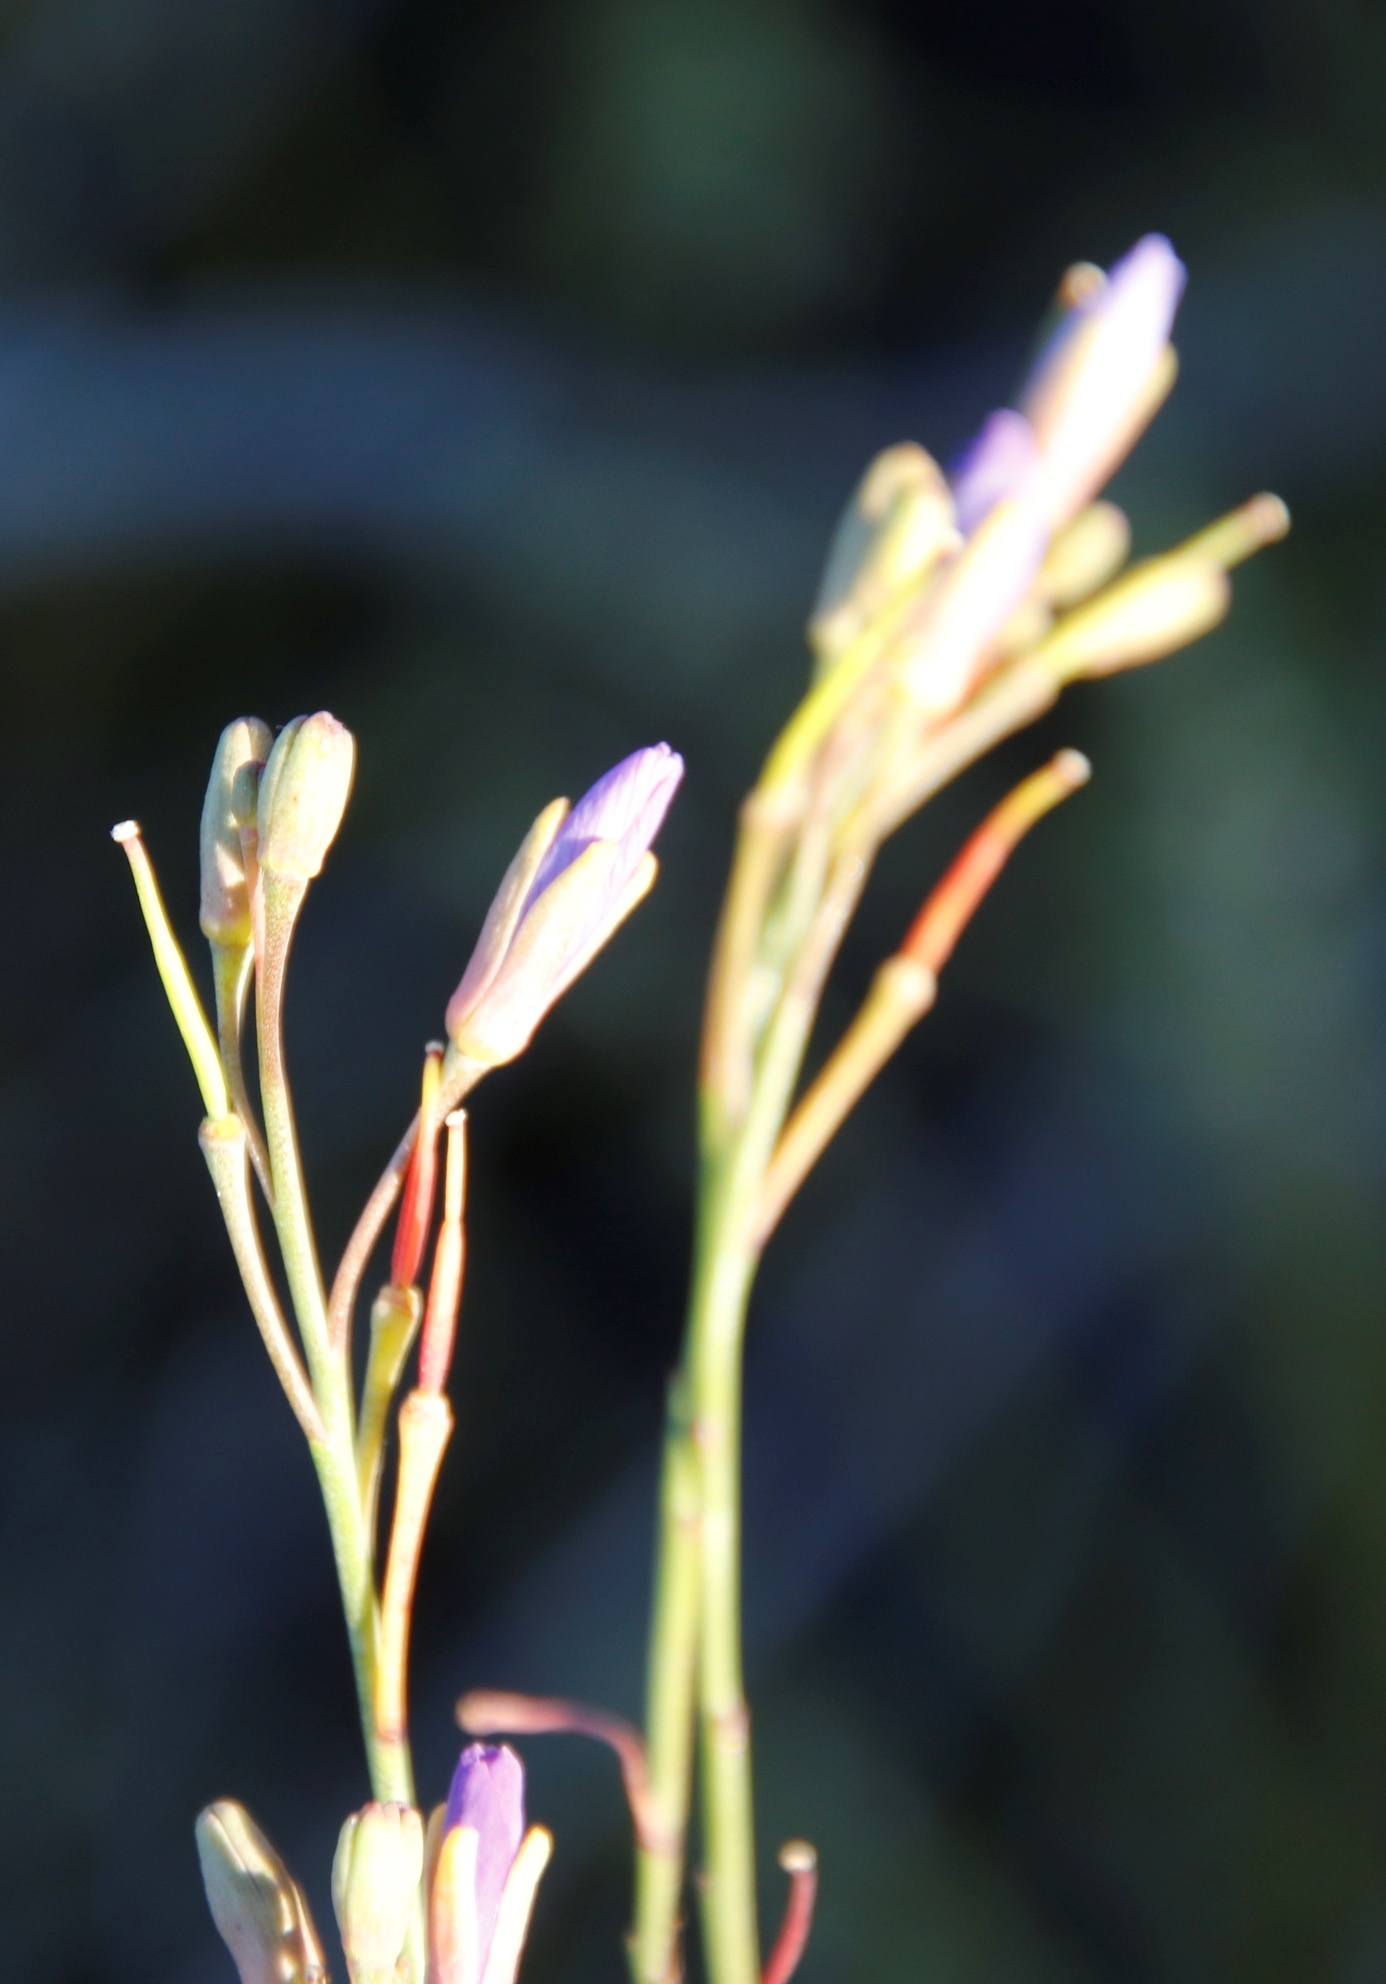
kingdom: Plantae
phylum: Tracheophyta
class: Magnoliopsida
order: Brassicales
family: Brassicaceae
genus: Heliophila
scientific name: Heliophila linearis
